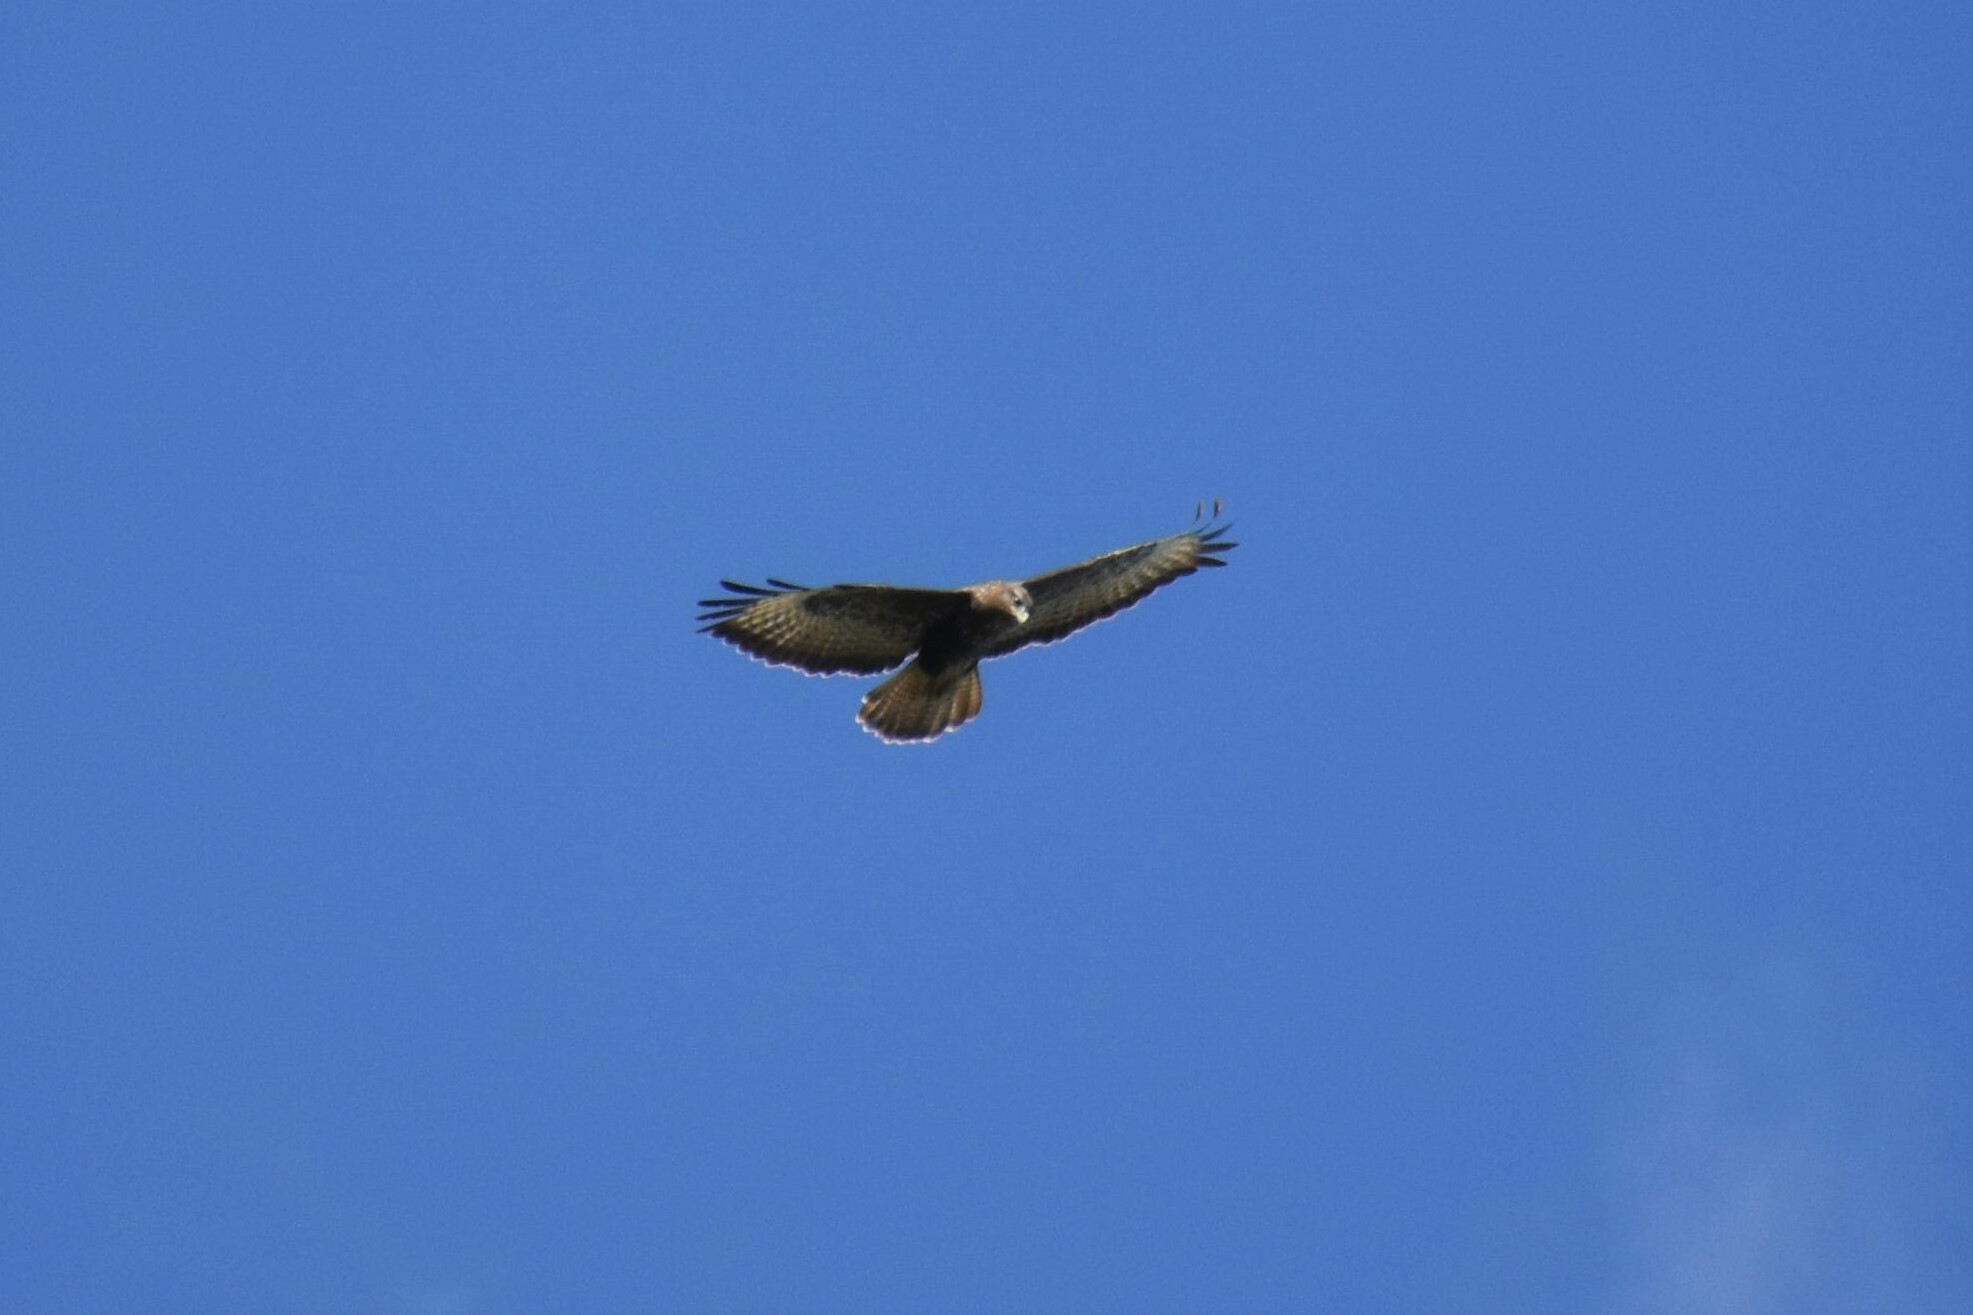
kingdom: Animalia
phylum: Chordata
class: Aves
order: Accipitriformes
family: Accipitridae
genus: Buteo
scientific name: Buteo buteo
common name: Common buzzard
